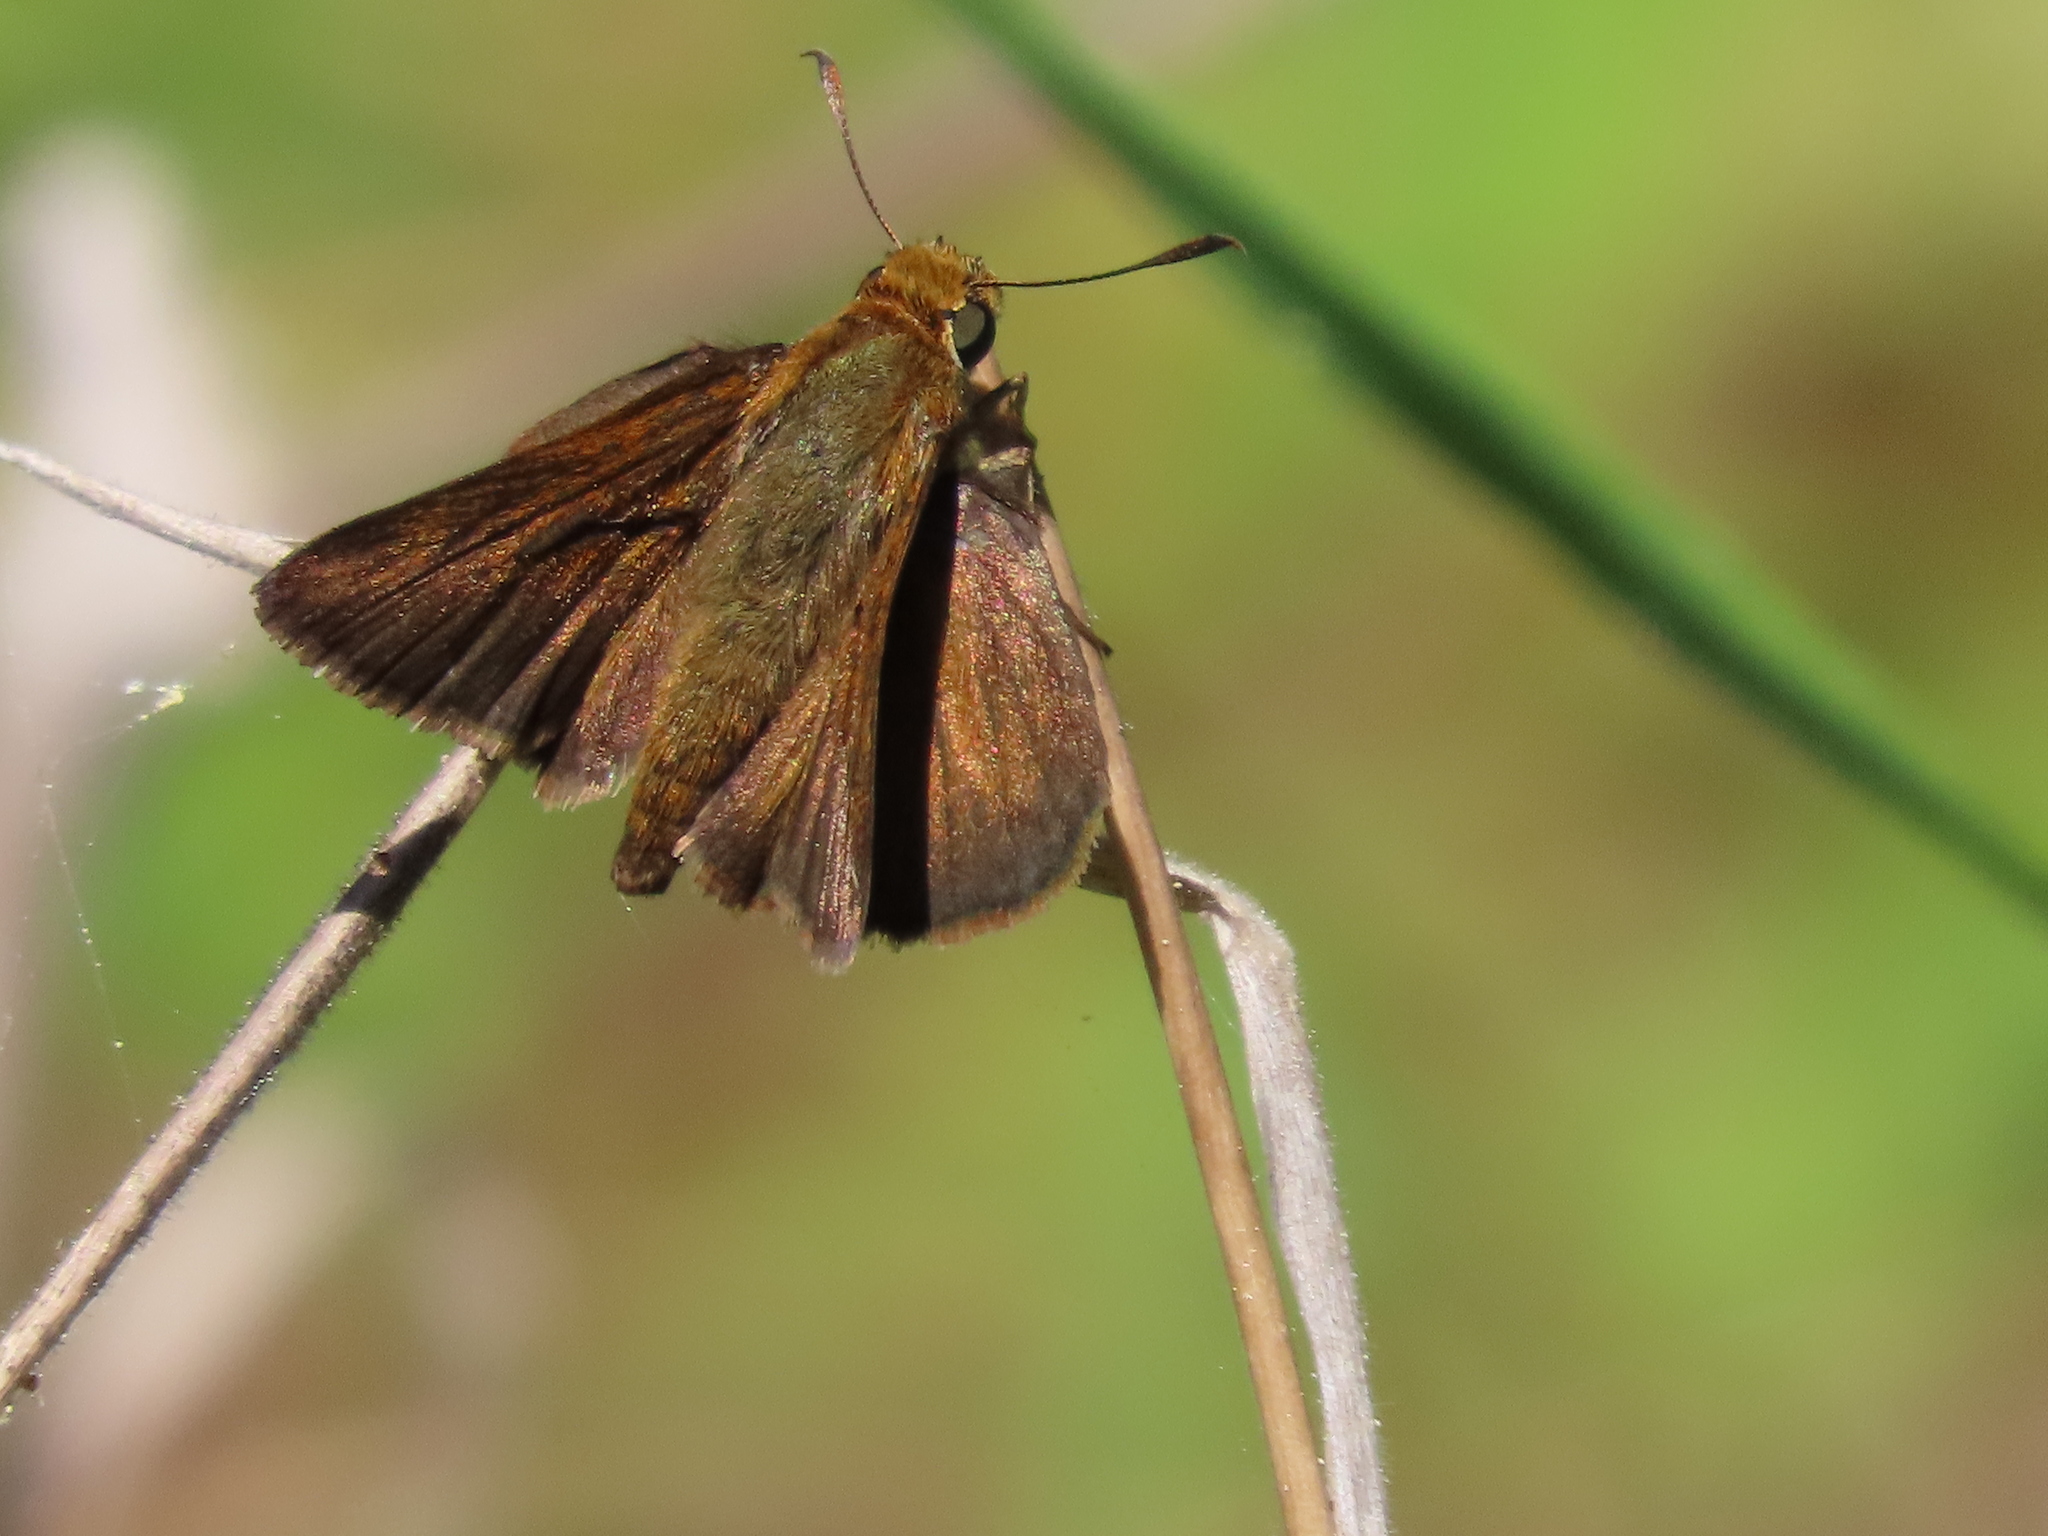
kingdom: Animalia
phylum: Arthropoda
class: Insecta
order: Lepidoptera
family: Hesperiidae
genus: Euphyes
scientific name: Euphyes vestris
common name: Dun skipper
